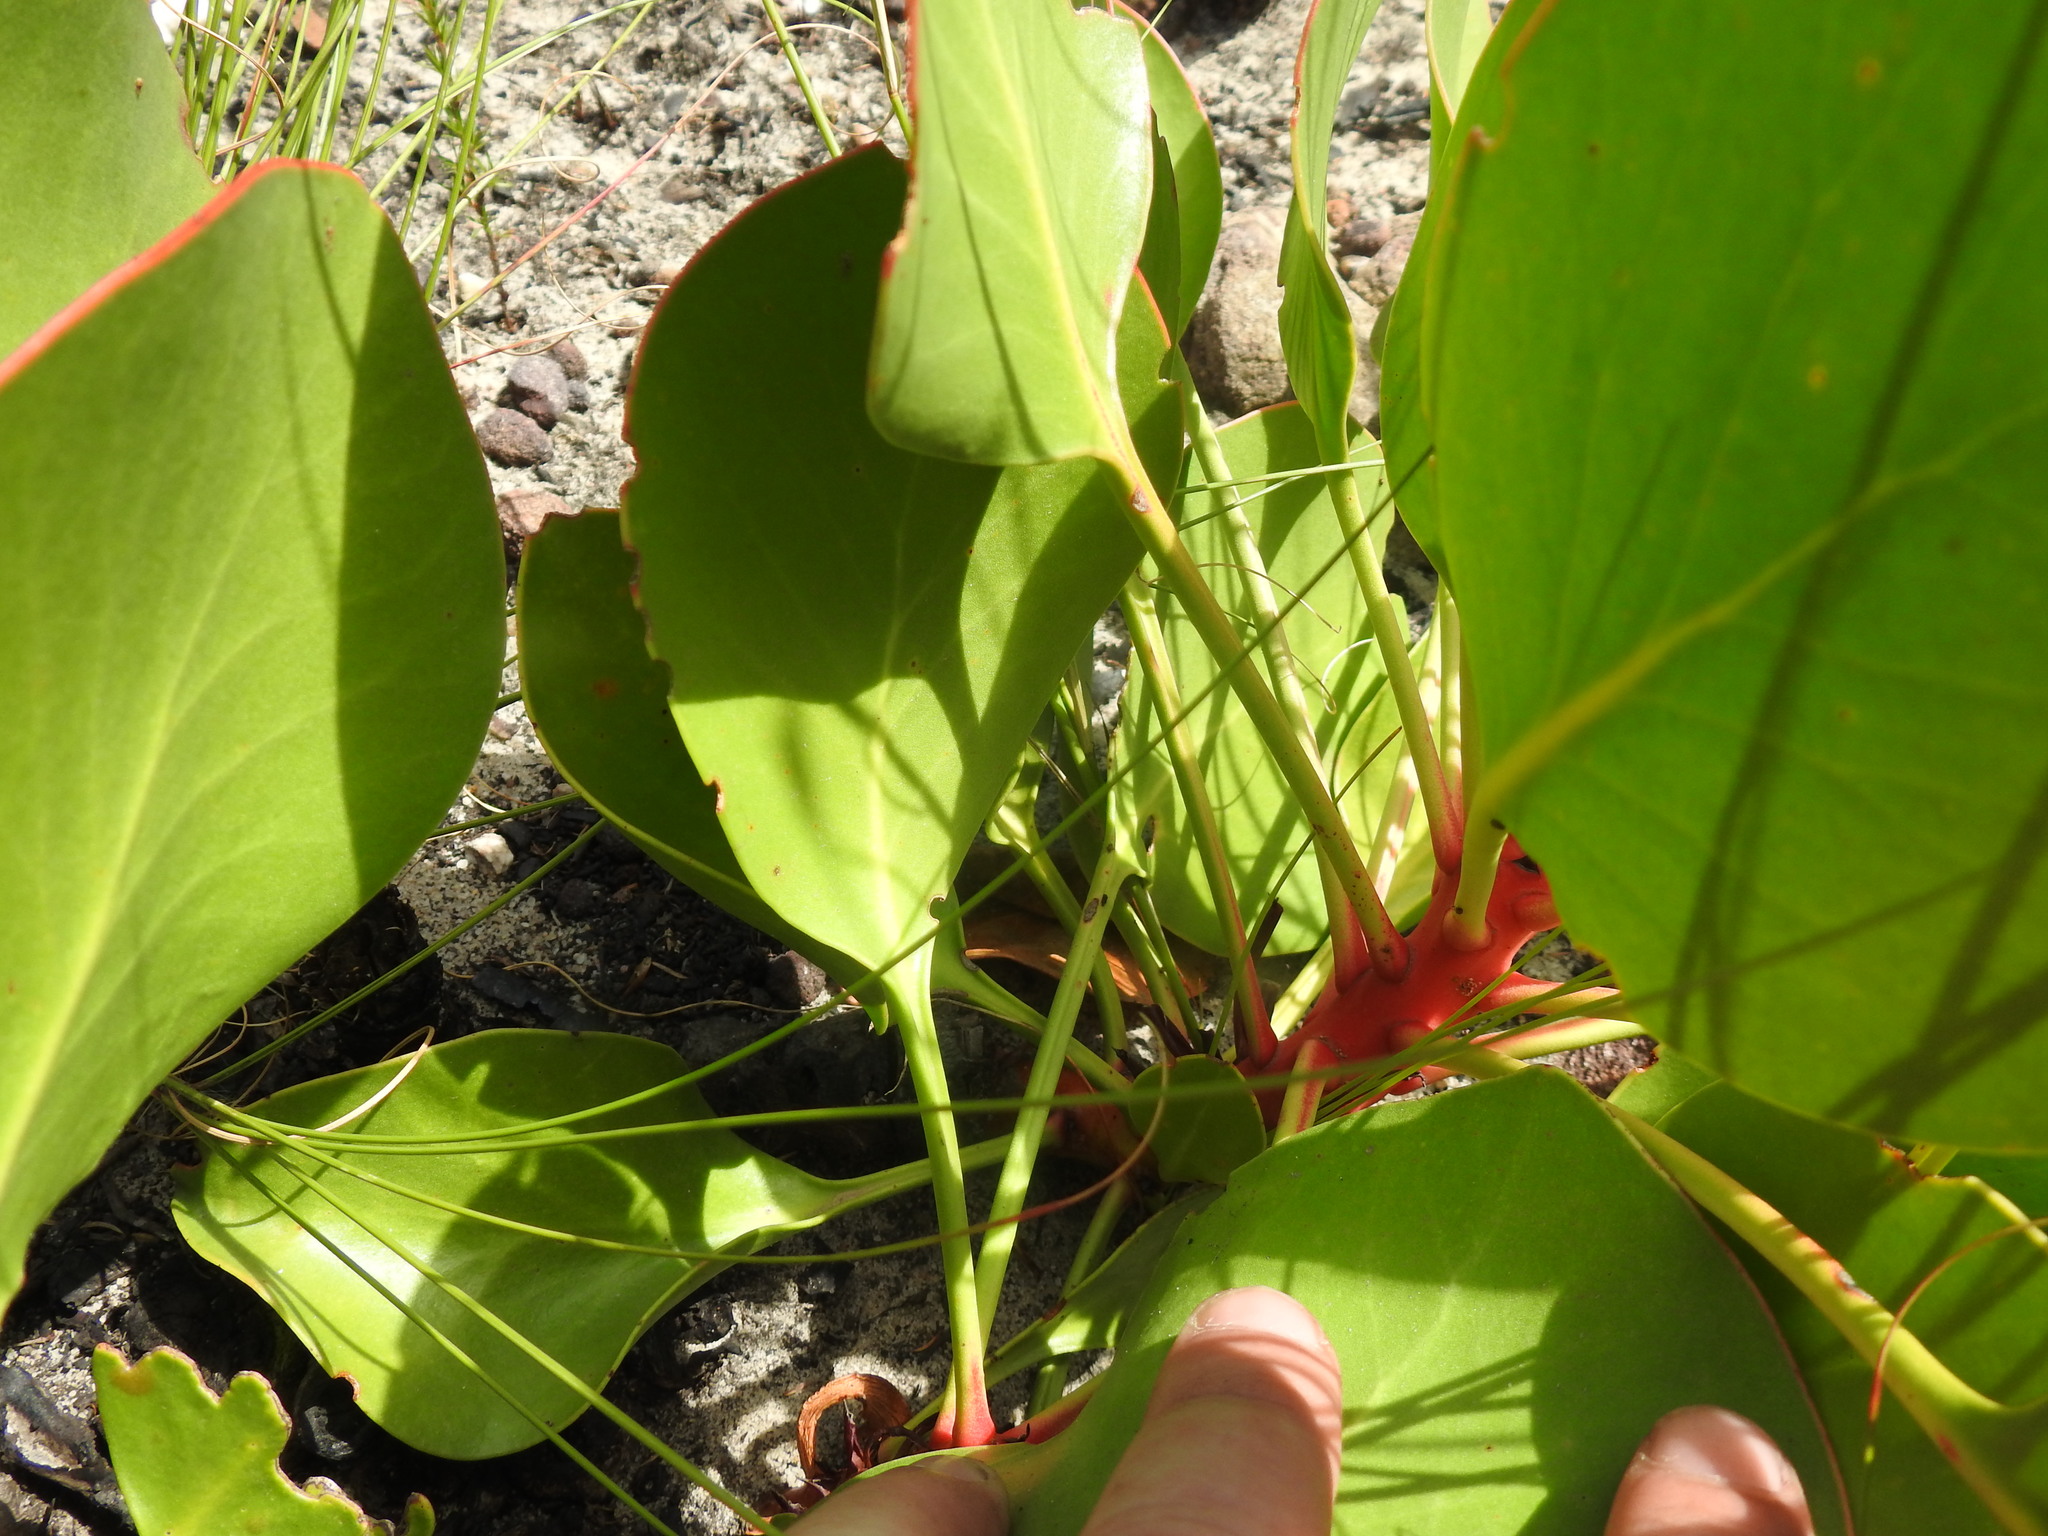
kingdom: Plantae
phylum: Tracheophyta
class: Magnoliopsida
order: Proteales
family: Proteaceae
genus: Protea
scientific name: Protea cynaroides
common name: King protea
